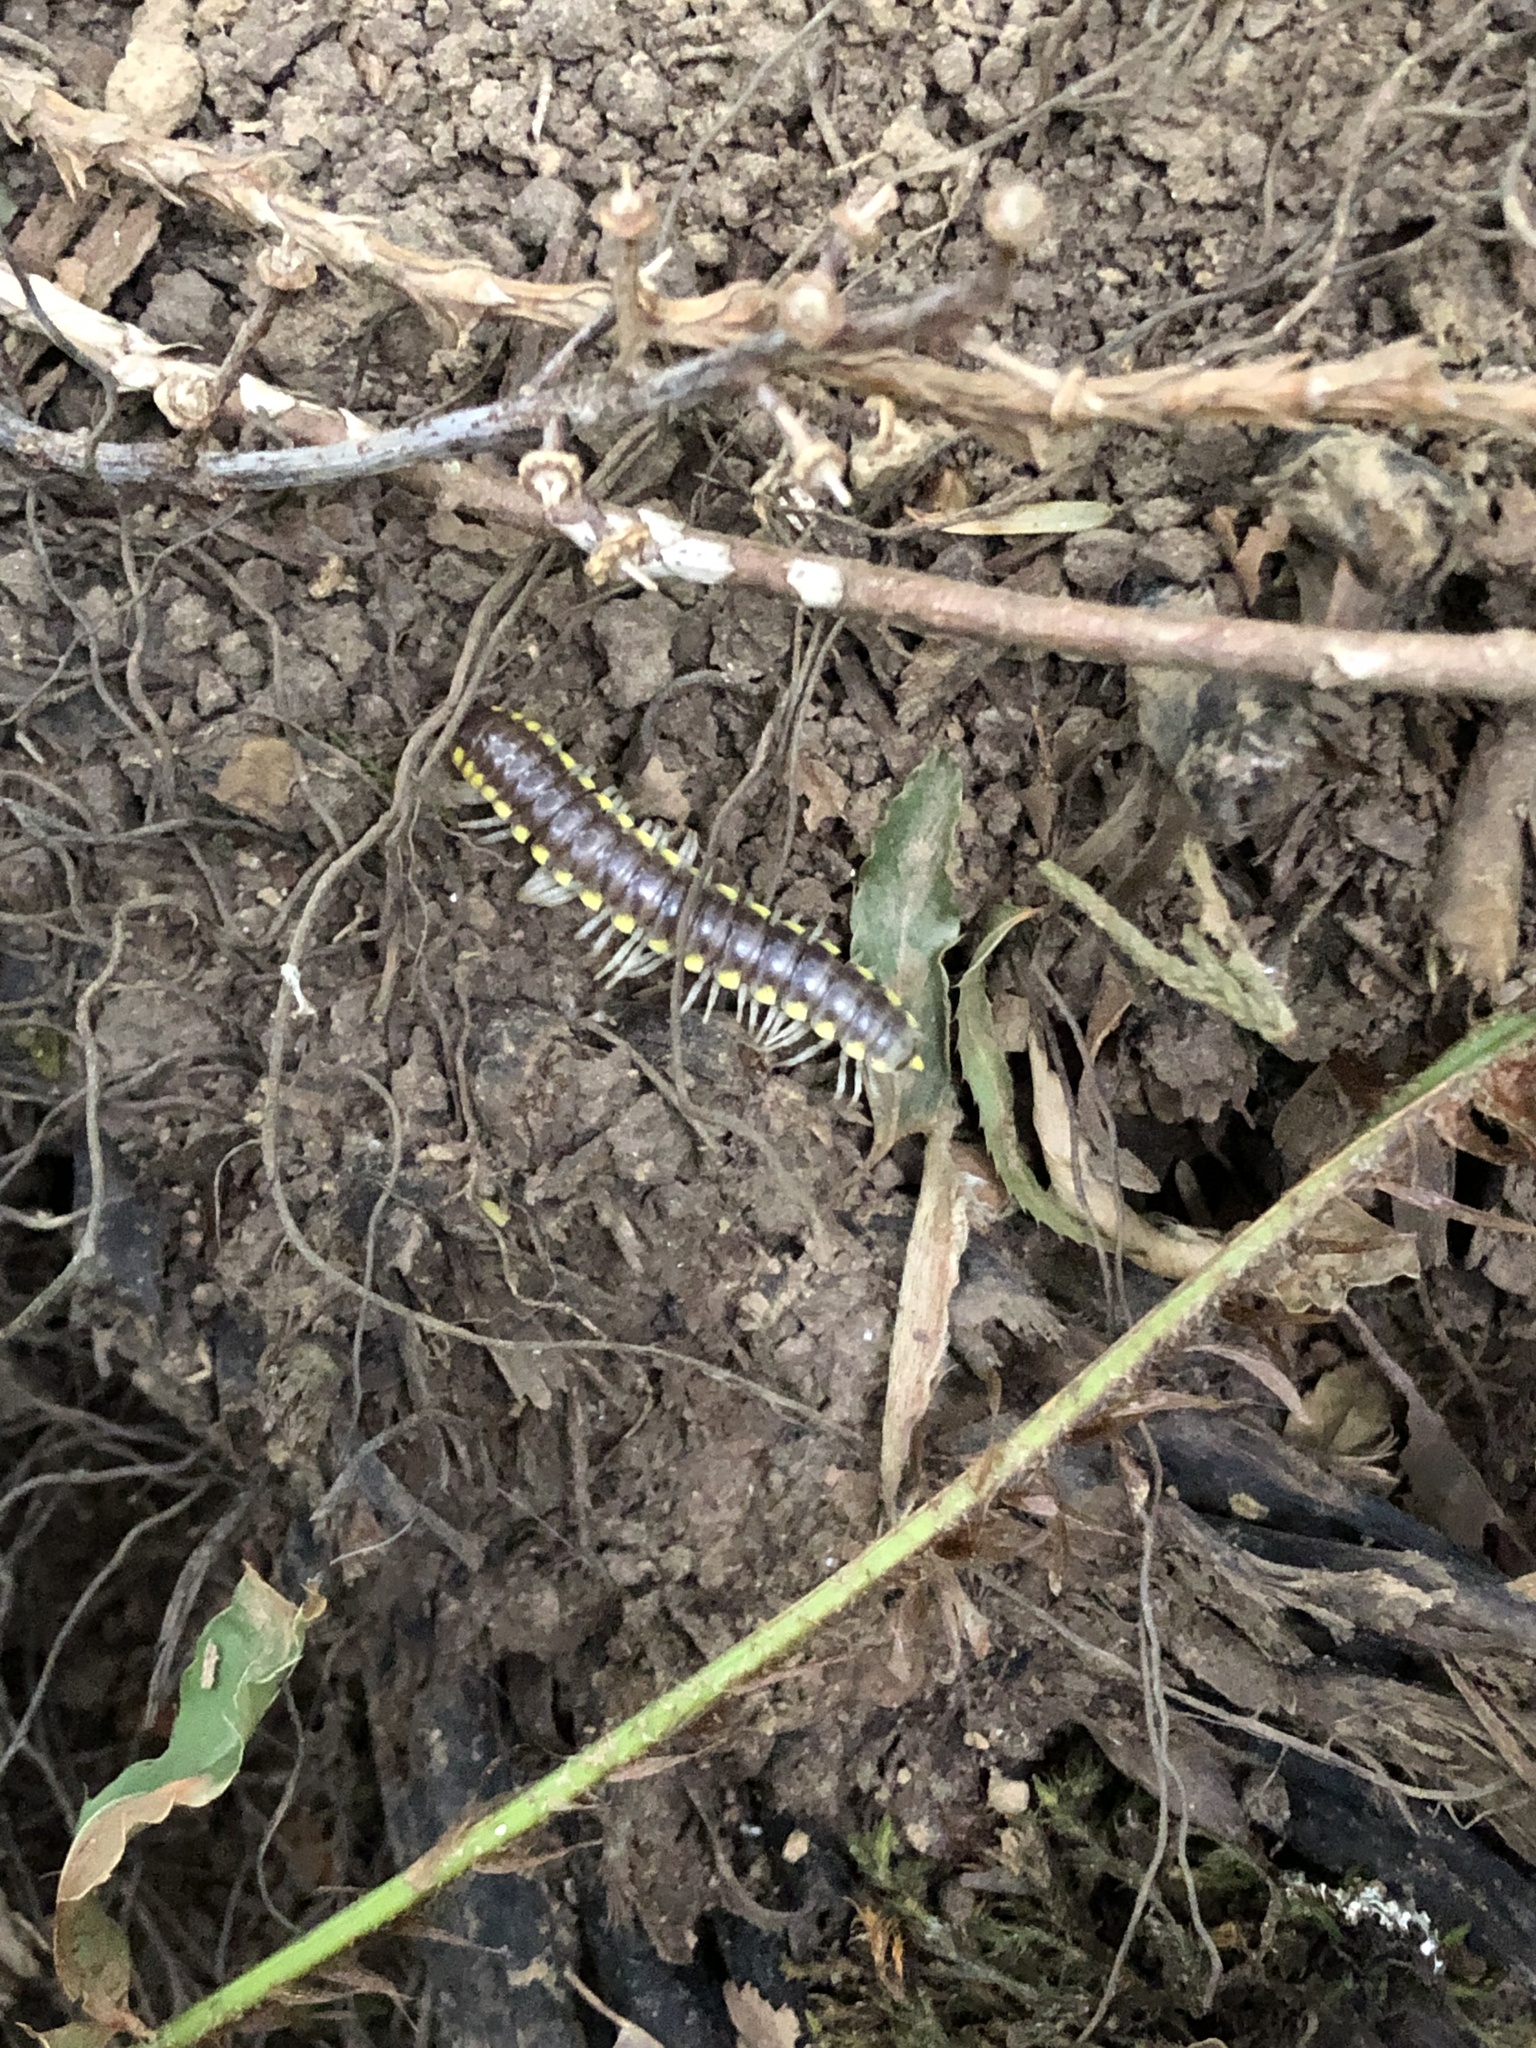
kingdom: Animalia
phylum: Arthropoda
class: Diplopoda
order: Polydesmida
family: Xystodesmidae
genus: Harpaphe
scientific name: Harpaphe haydeniana
